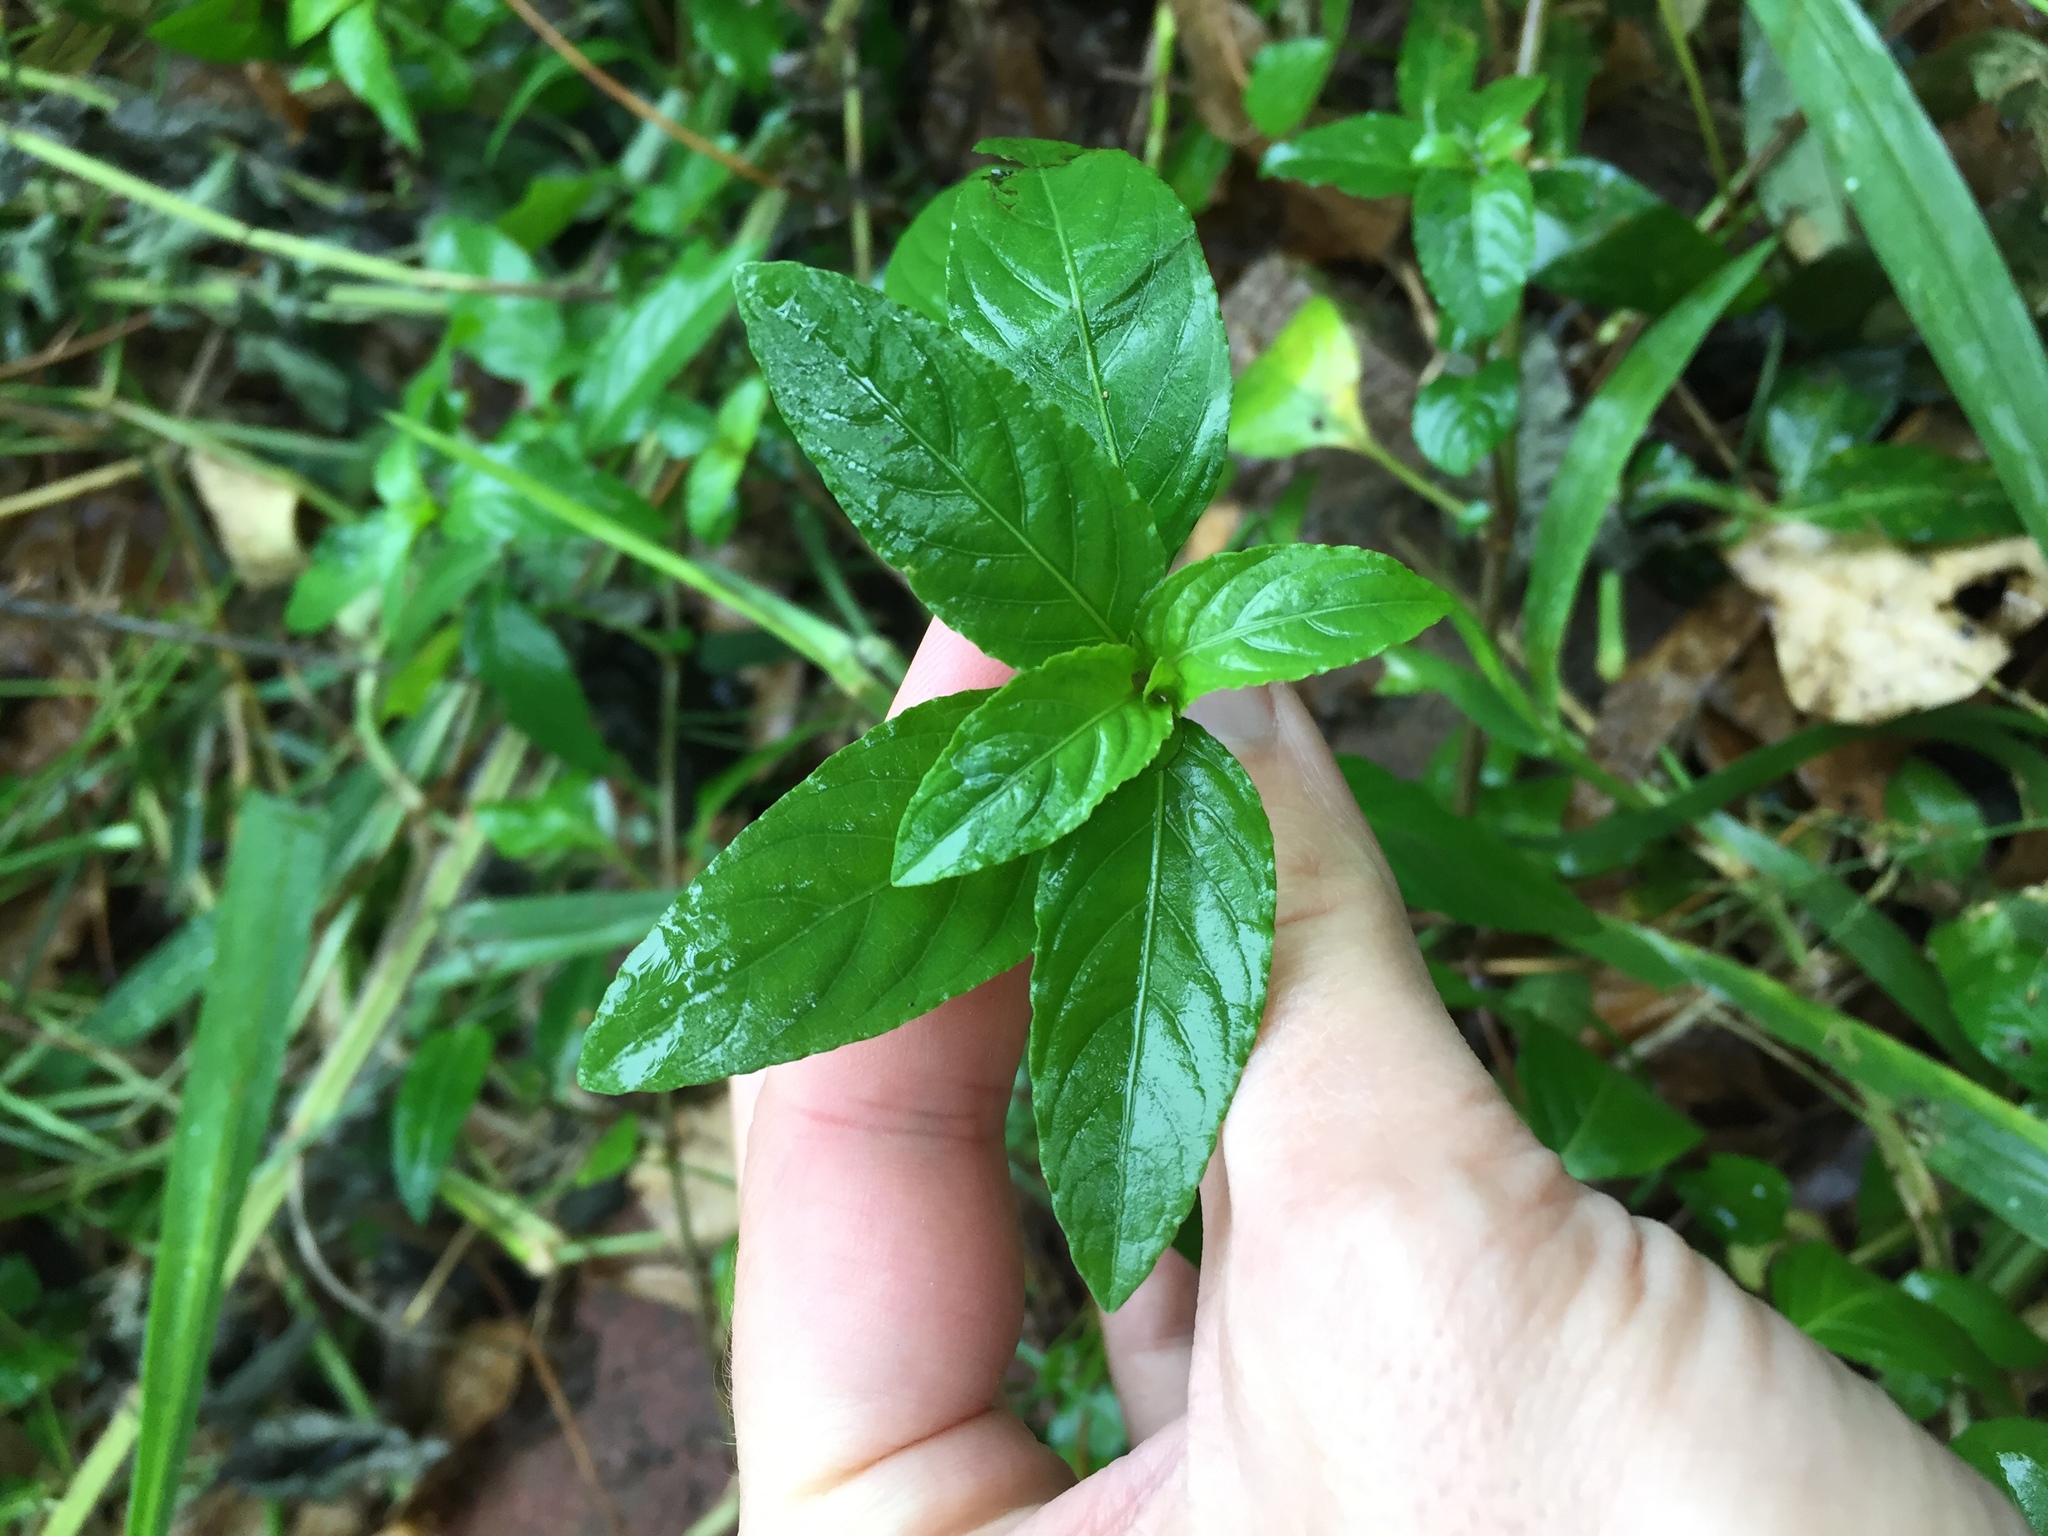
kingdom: Plantae
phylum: Tracheophyta
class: Magnoliopsida
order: Lamiales
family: Acanthaceae
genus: Hygrophila
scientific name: Hygrophila erecta
